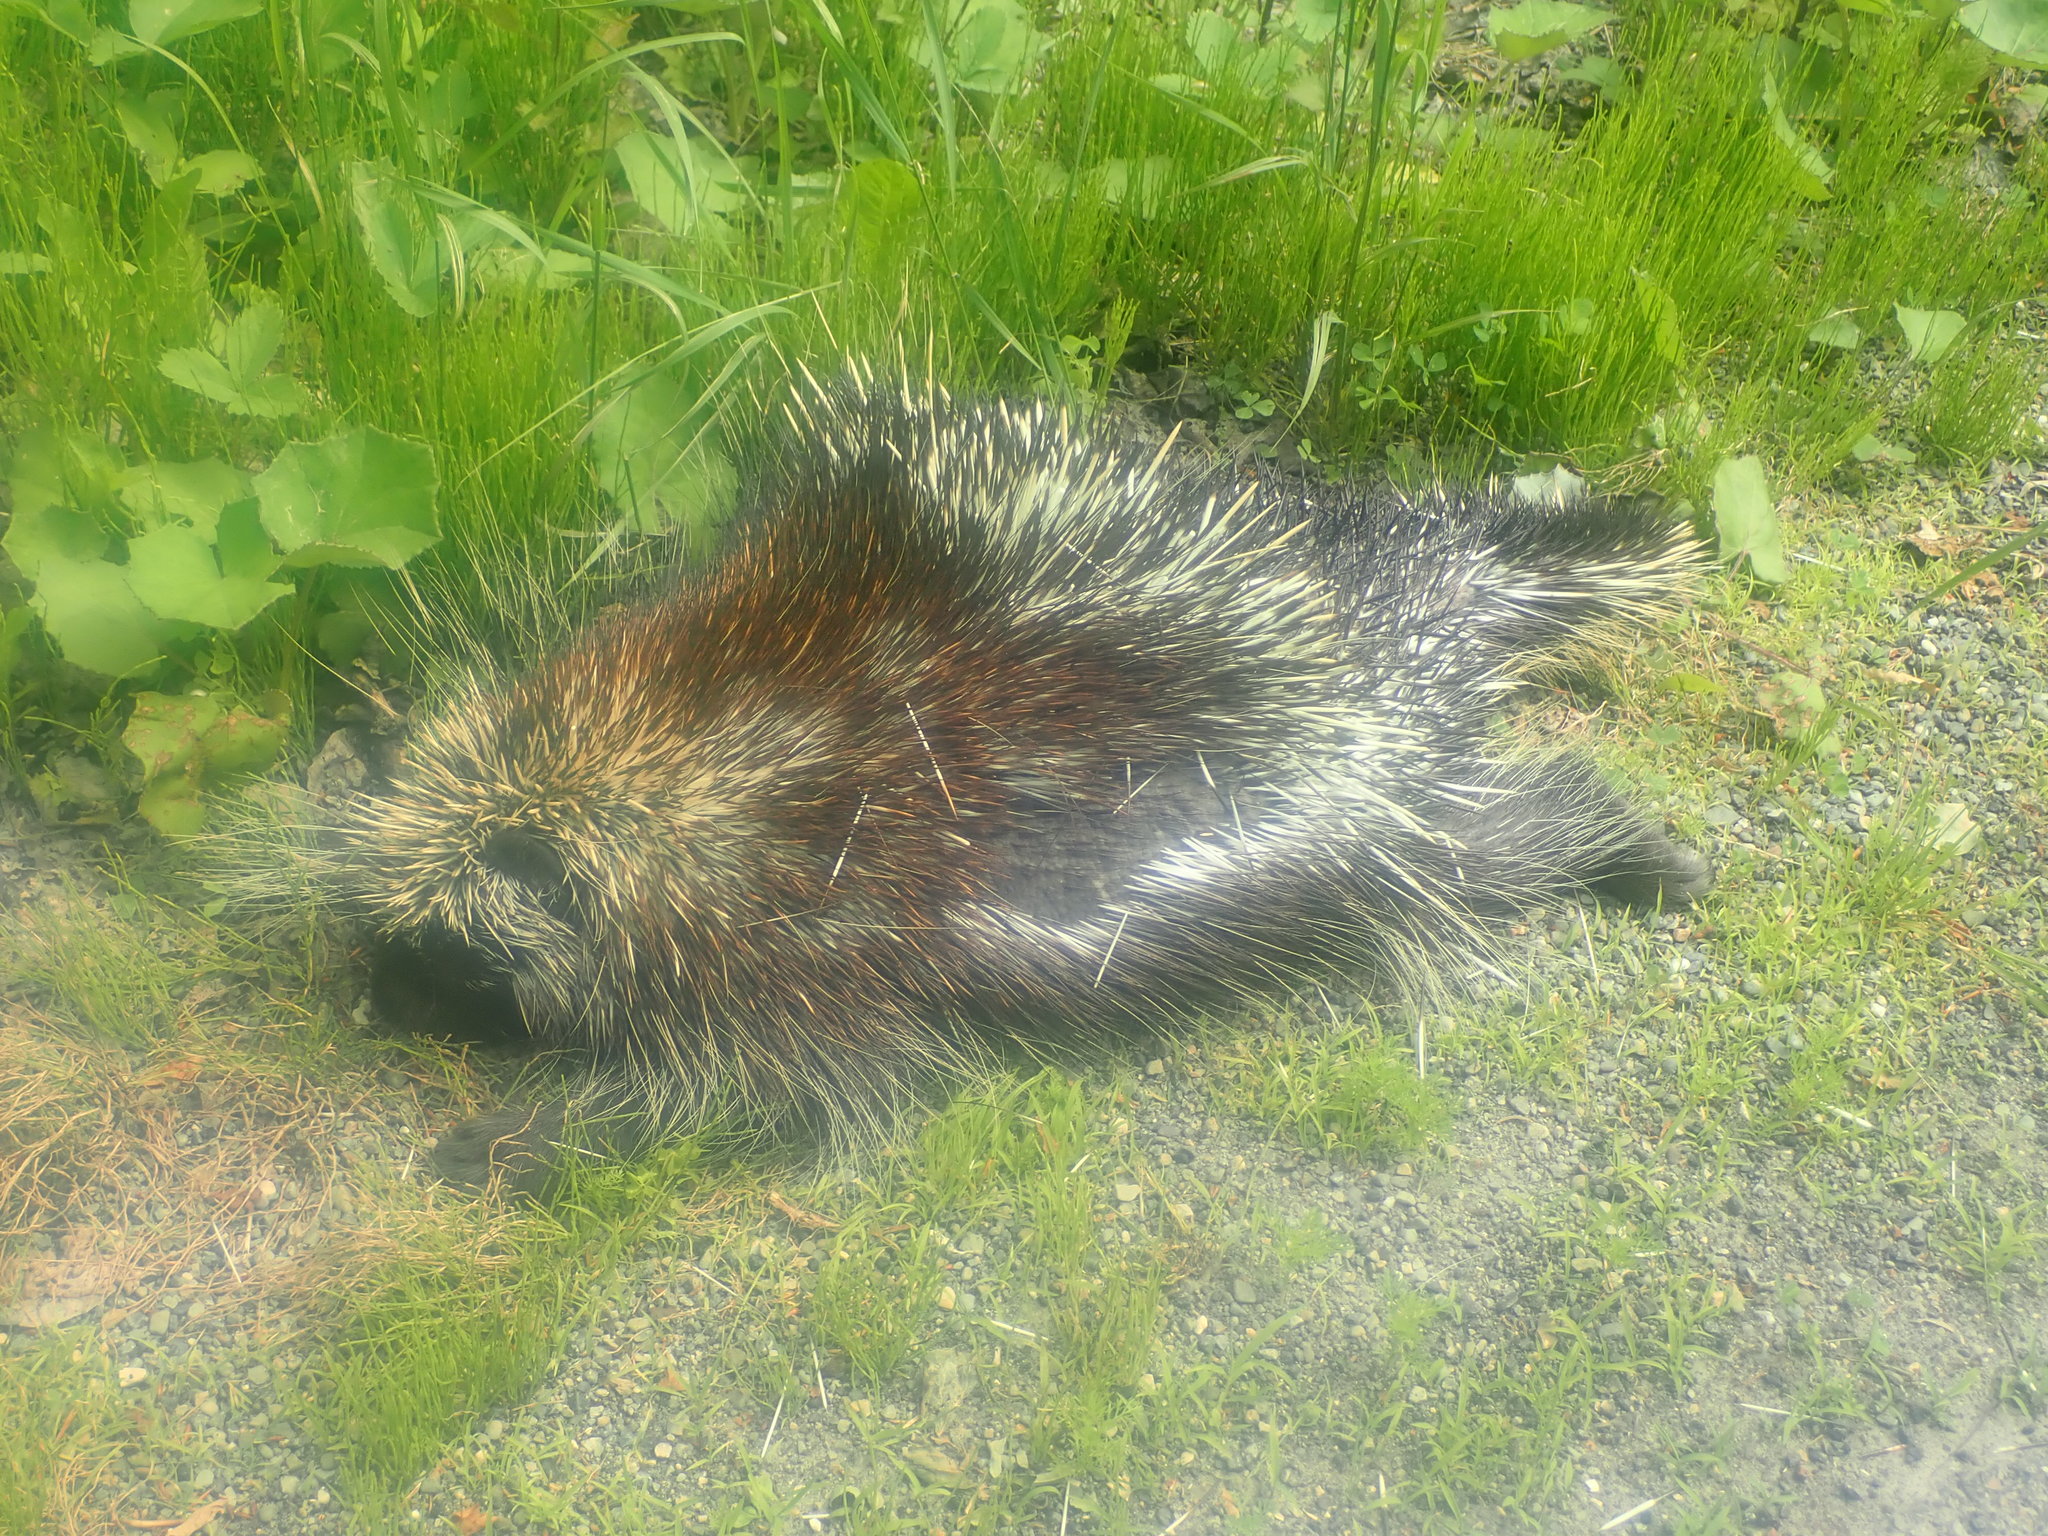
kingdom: Animalia
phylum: Chordata
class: Mammalia
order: Rodentia
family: Erethizontidae
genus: Erethizon
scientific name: Erethizon dorsatus
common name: North american porcupine
